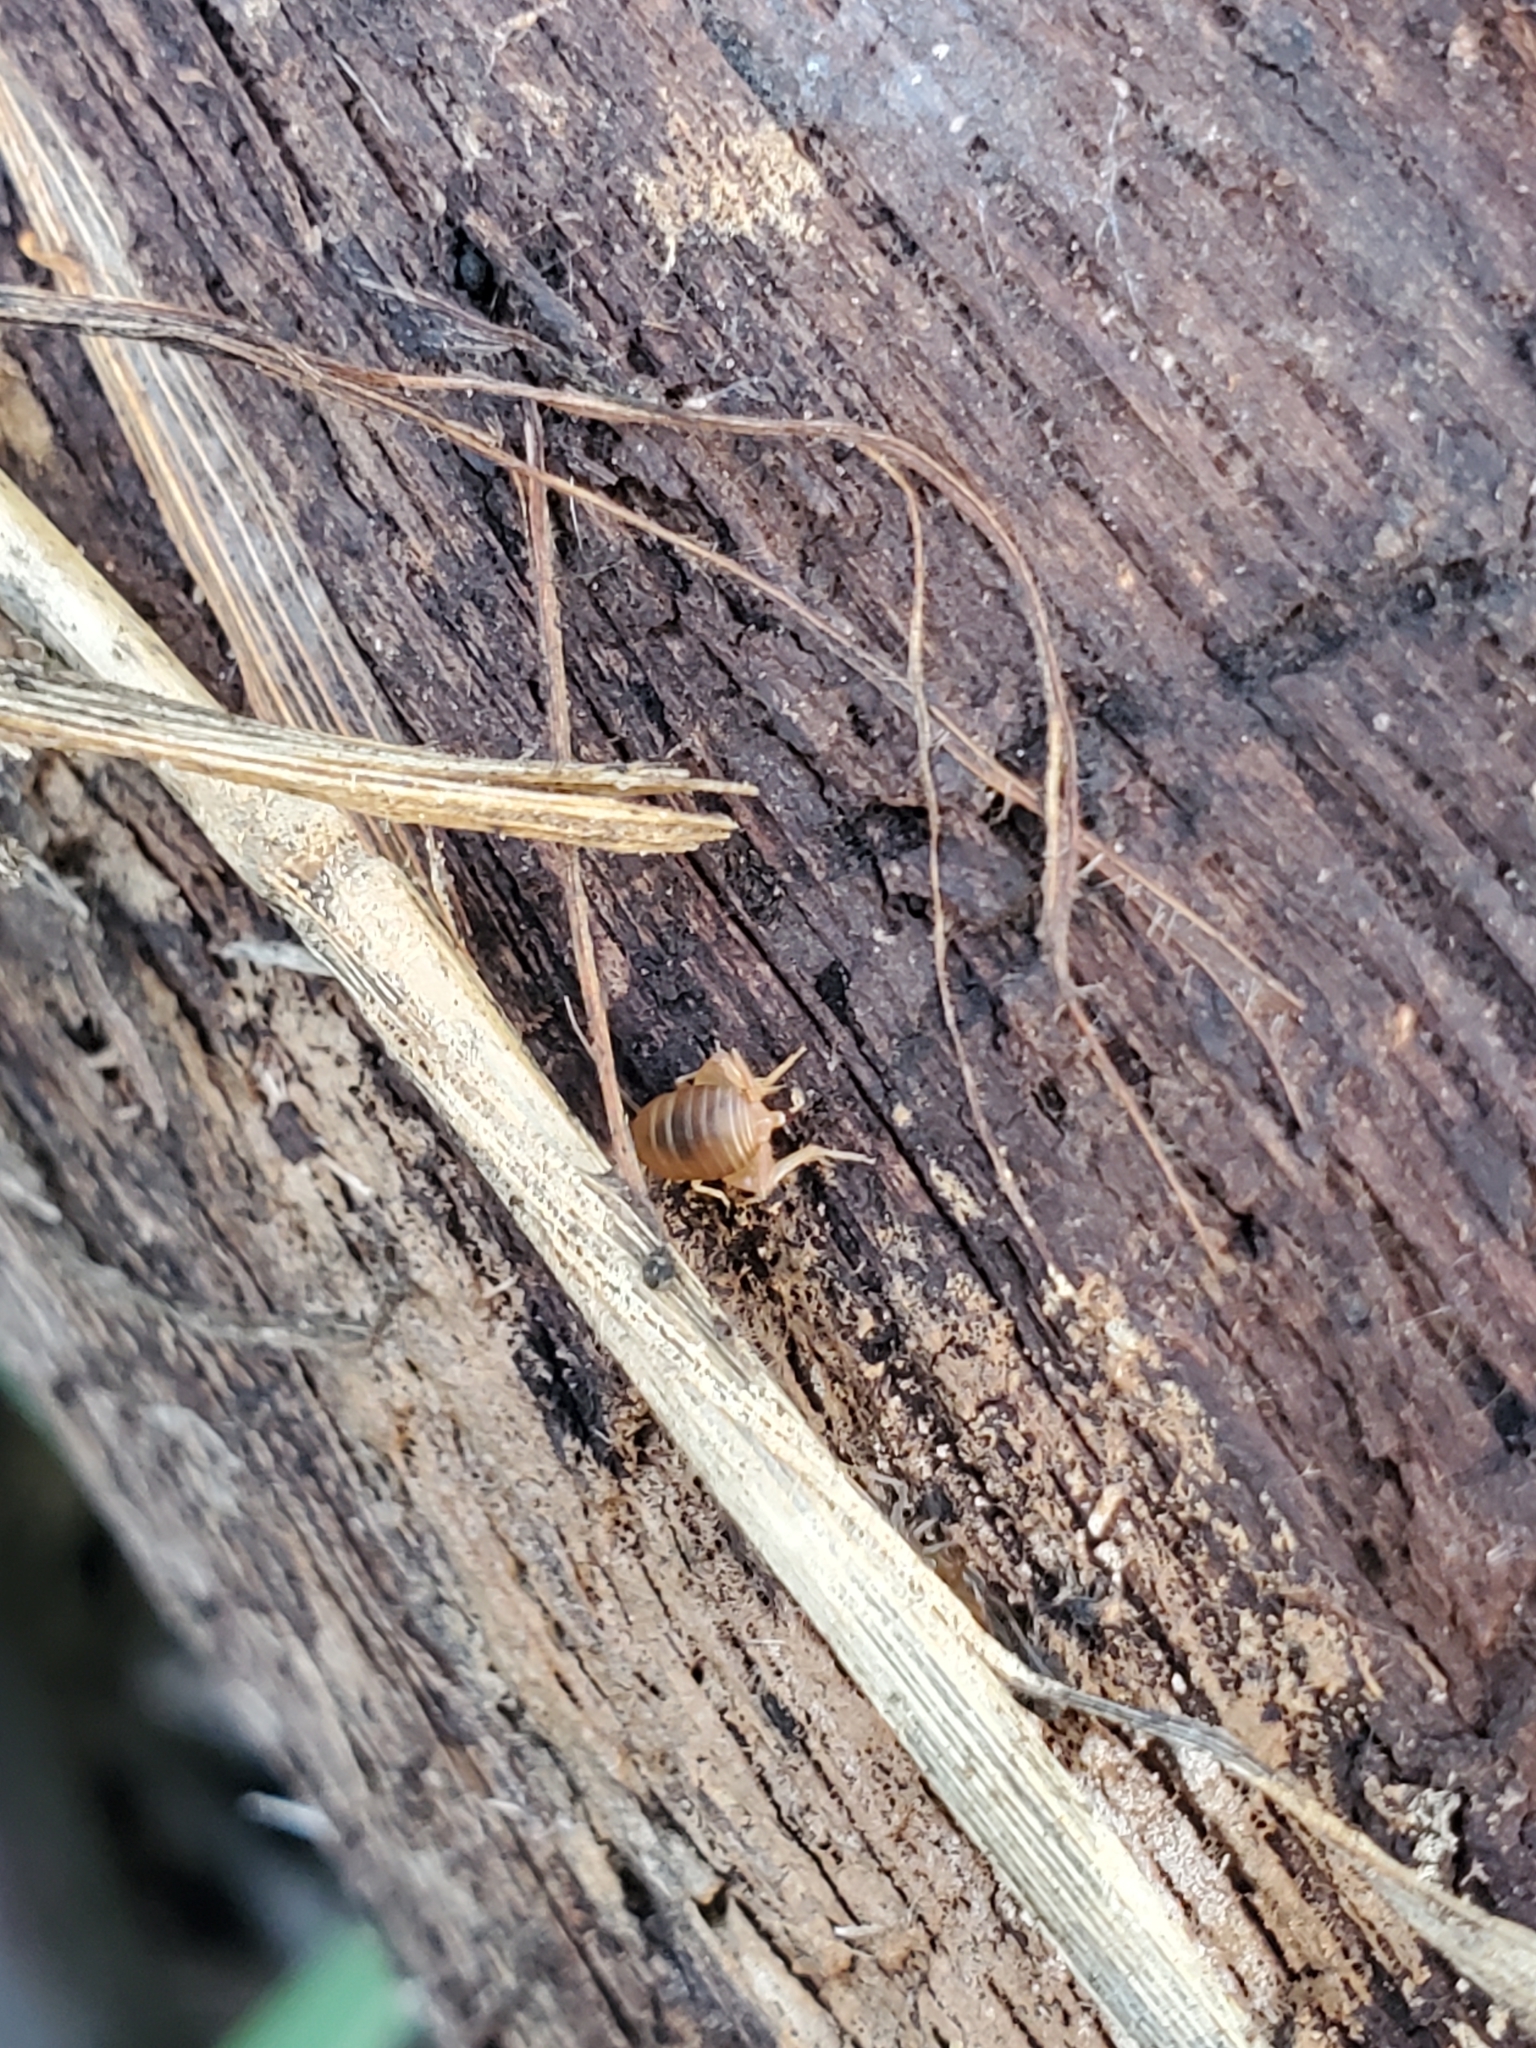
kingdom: Animalia
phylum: Arthropoda
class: Insecta
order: Orthoptera
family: Myrmecophilidae
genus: Myrmecophilus
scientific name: Myrmecophilus
